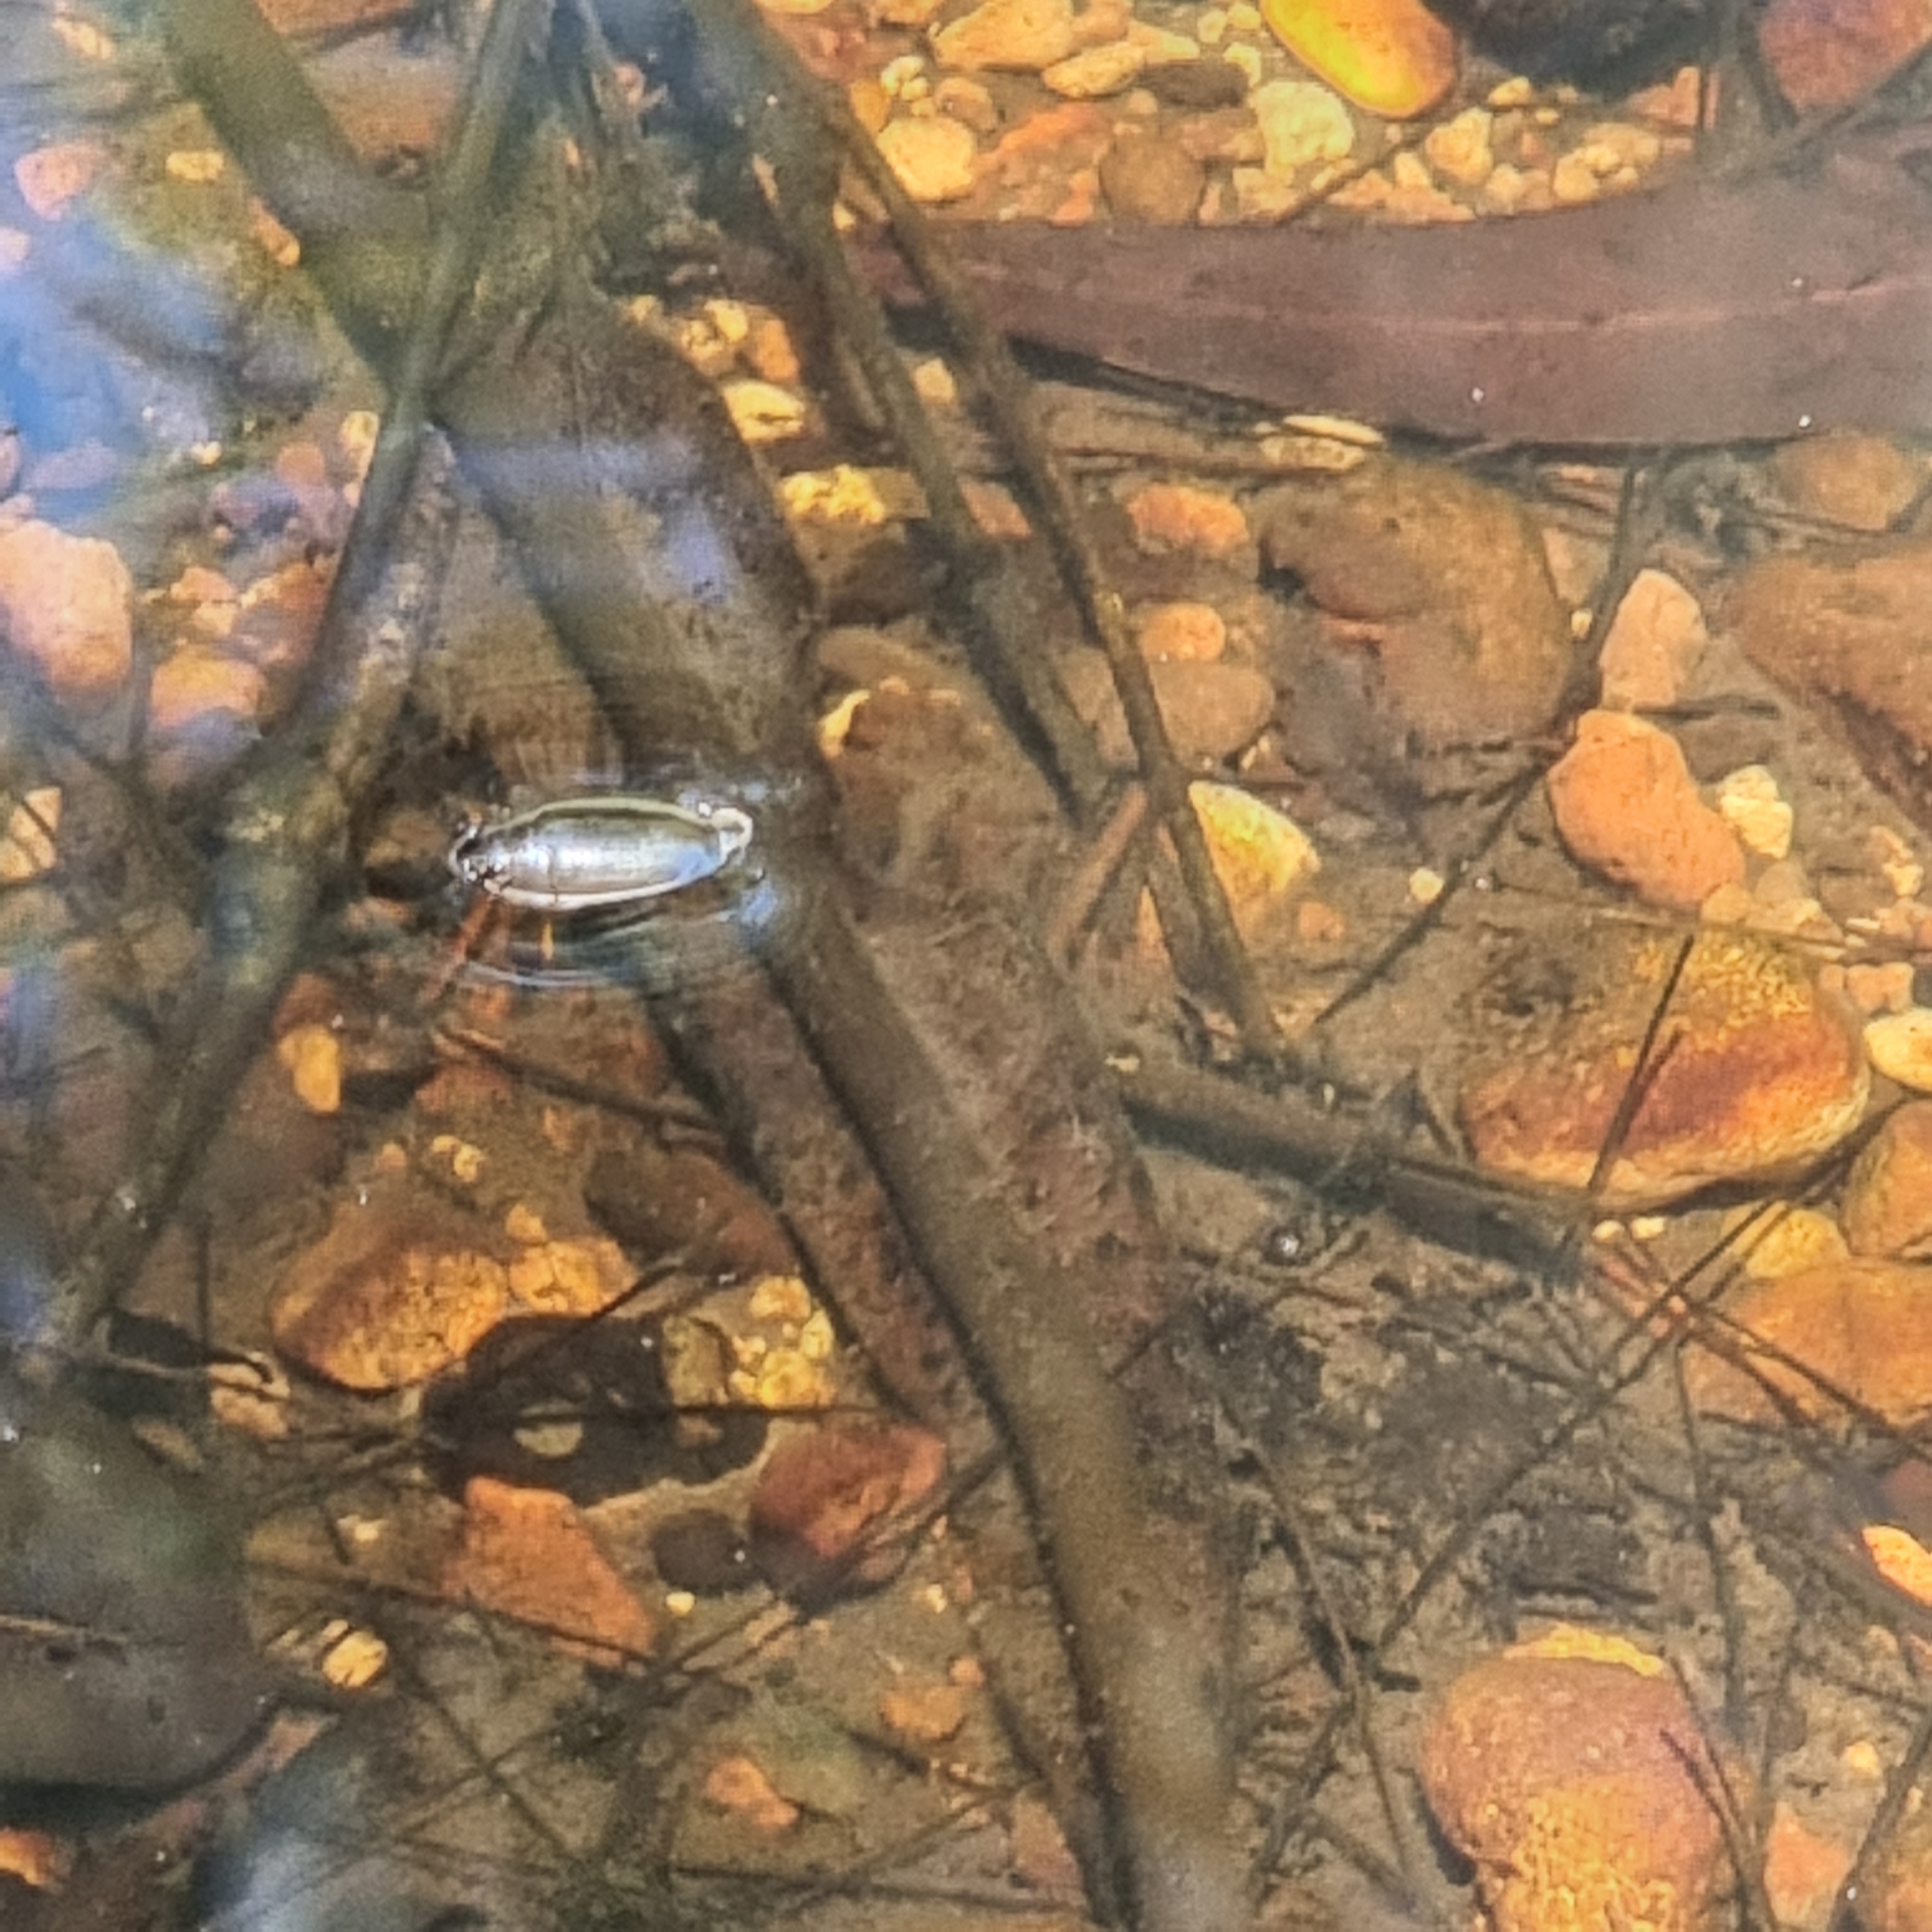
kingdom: Animalia
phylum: Arthropoda
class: Insecta
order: Coleoptera
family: Gyrinidae
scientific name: Gyrinidae
